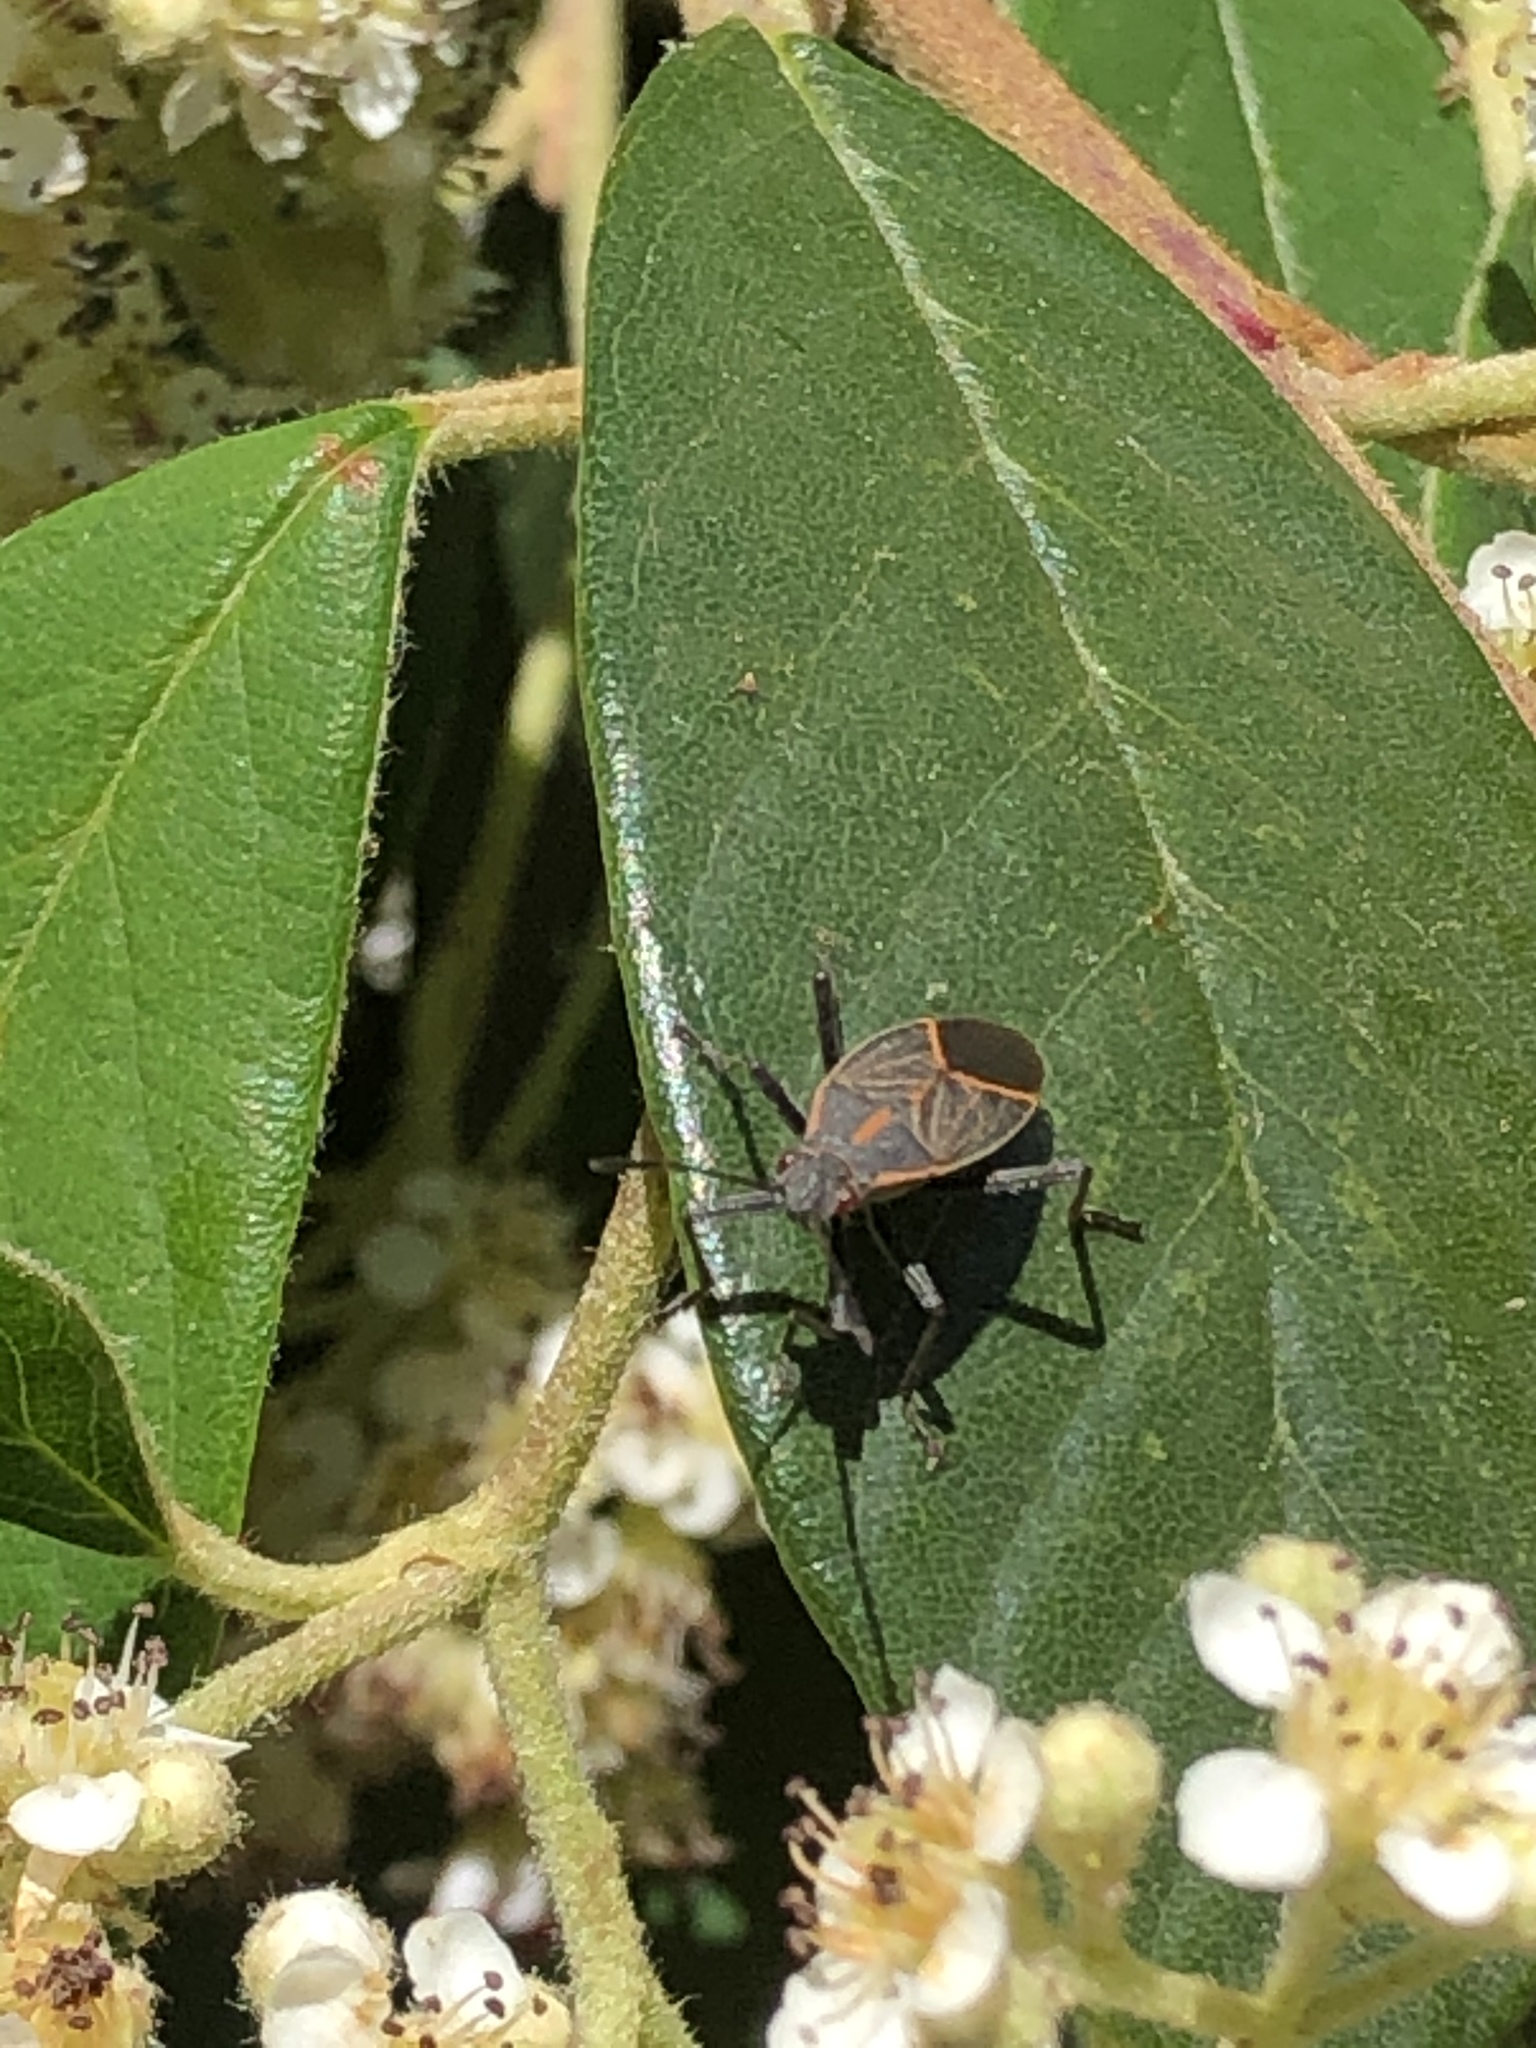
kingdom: Animalia
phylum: Arthropoda
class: Insecta
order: Hemiptera
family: Rhopalidae
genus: Boisea
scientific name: Boisea rubrolineata
